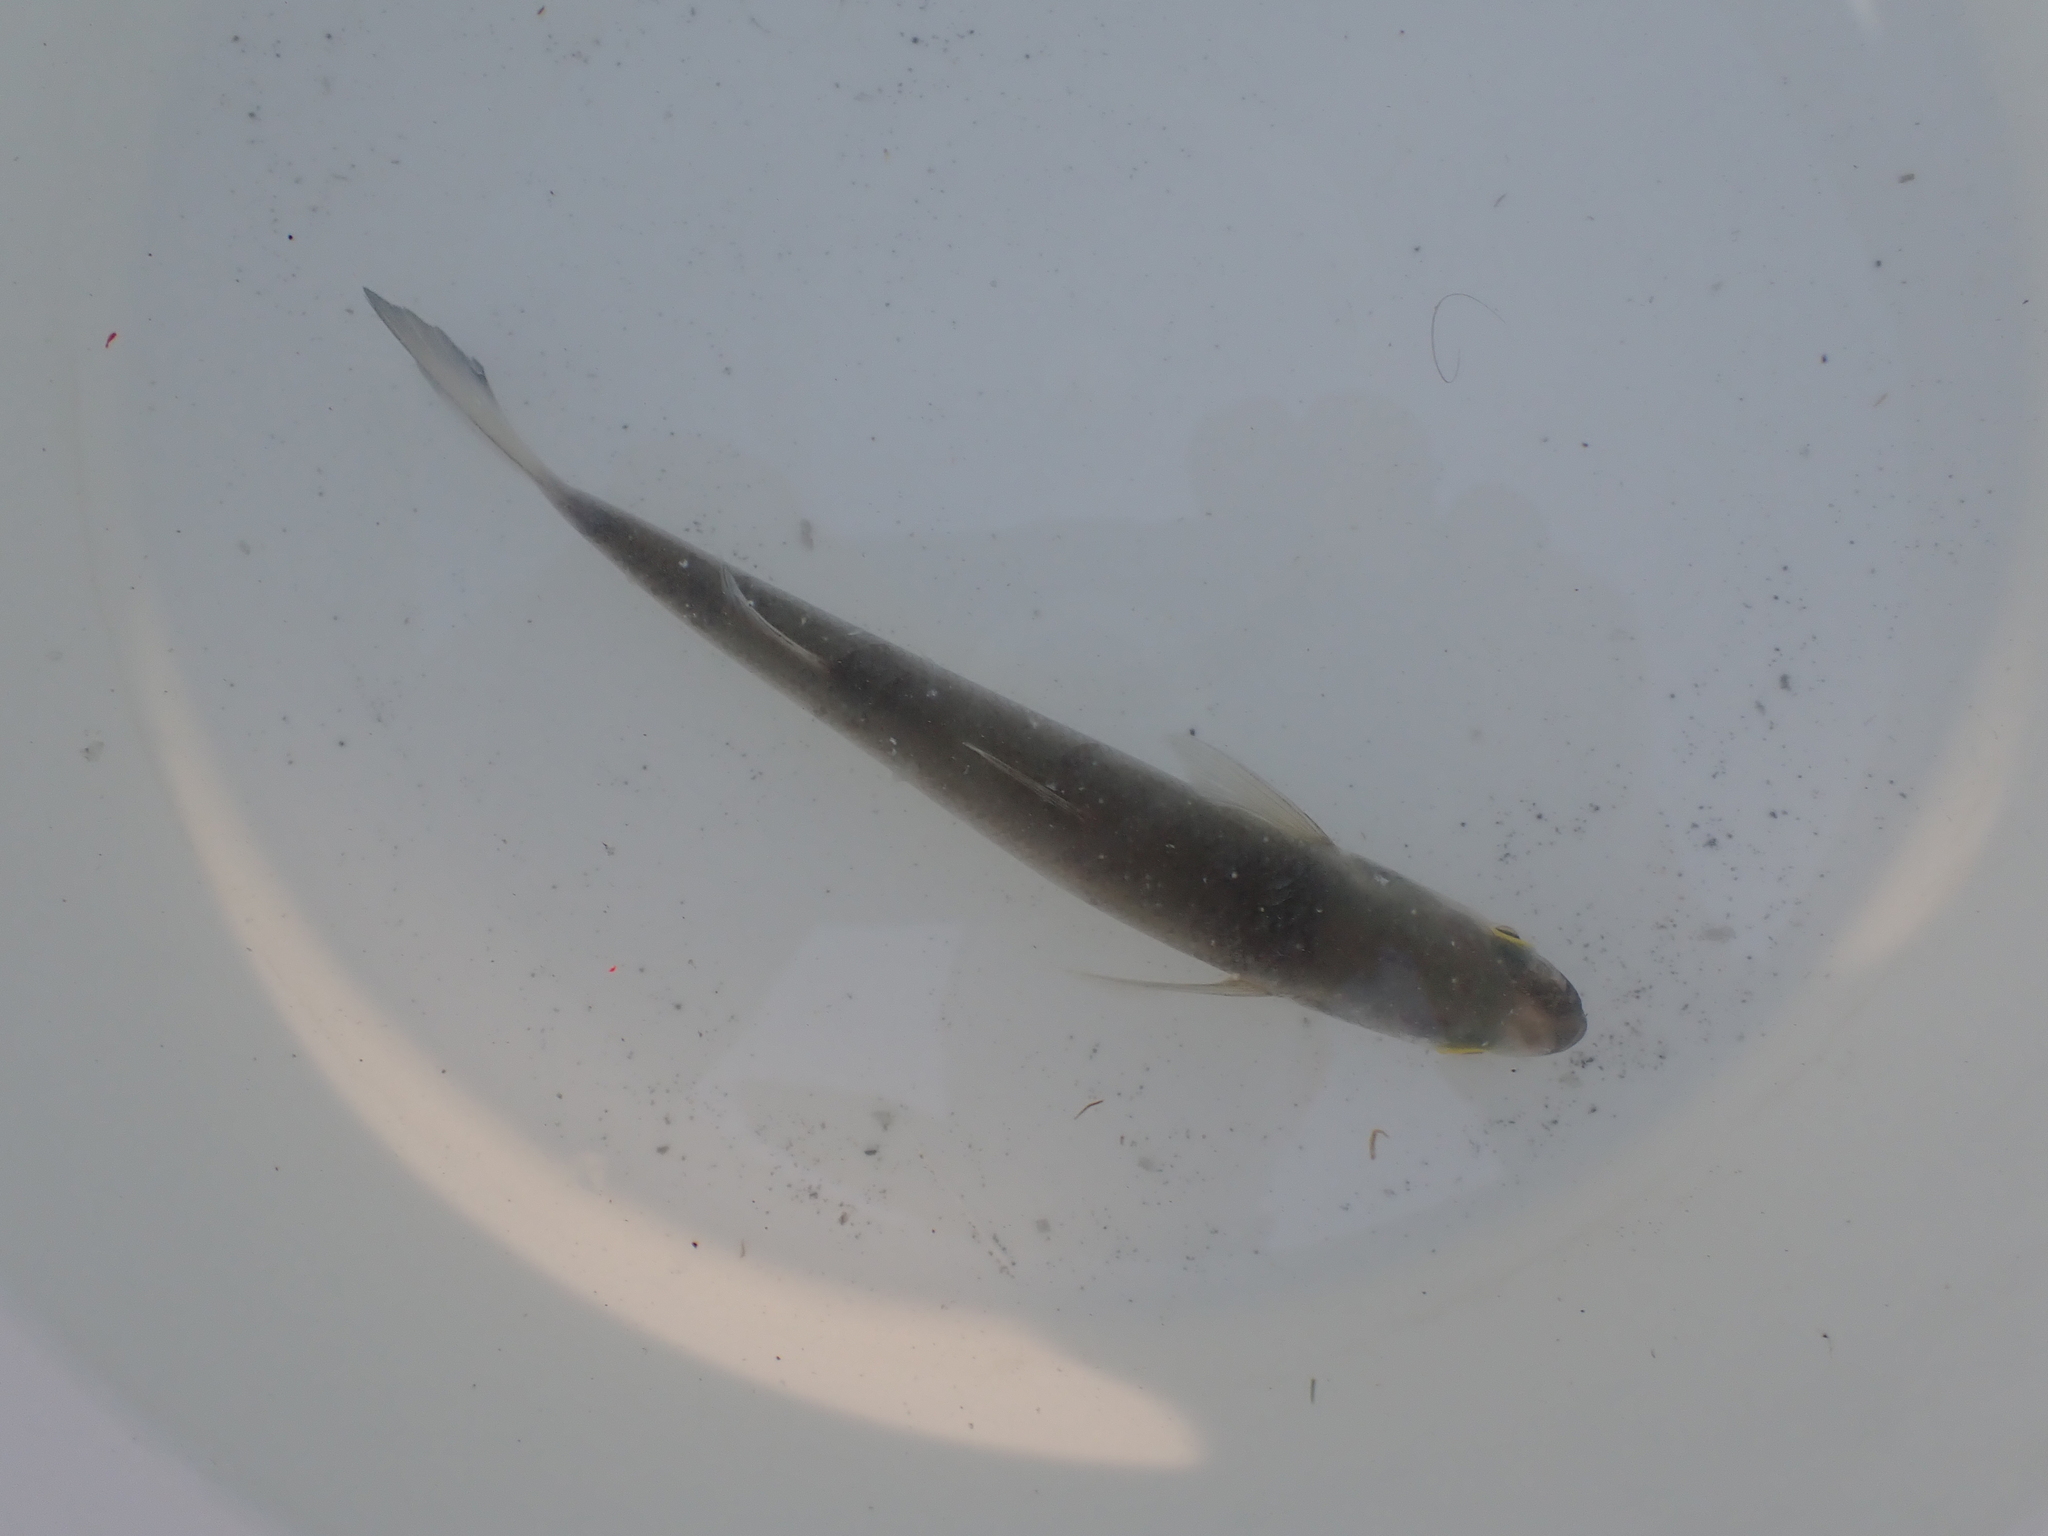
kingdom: Animalia
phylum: Chordata
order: Mugiliformes
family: Mugilidae
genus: Aldrichetta
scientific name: Aldrichetta forsteri
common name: Yellow-eye mullet
